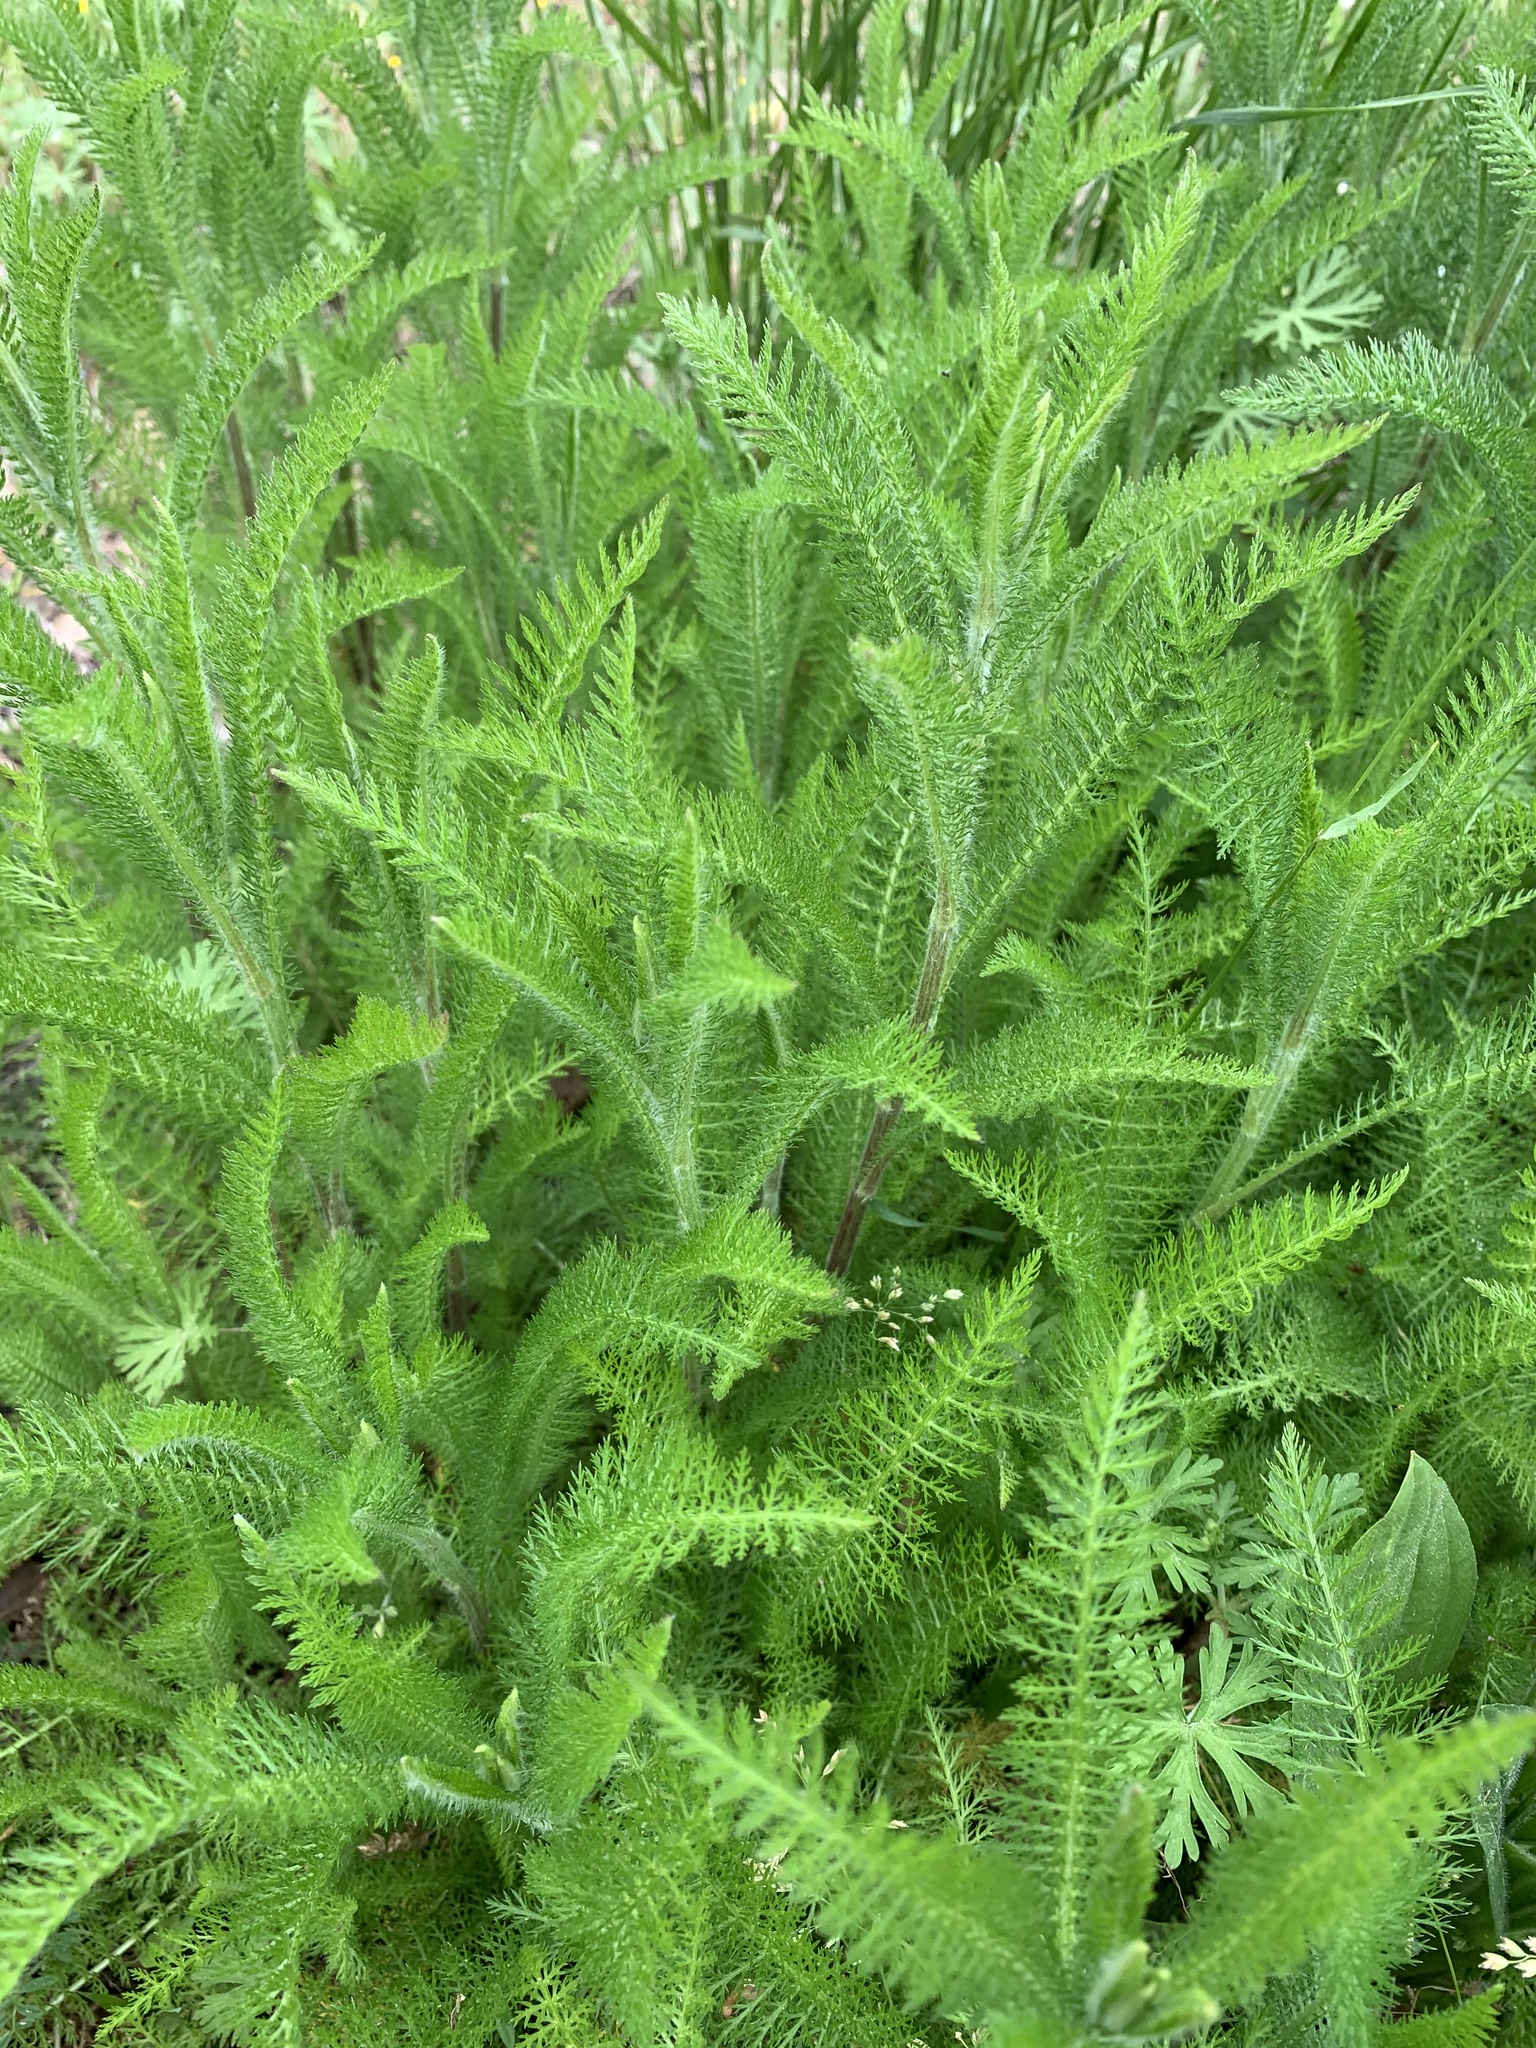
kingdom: Plantae
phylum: Tracheophyta
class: Magnoliopsida
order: Asterales
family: Asteraceae
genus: Achillea
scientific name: Achillea millefolium
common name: Yarrow
